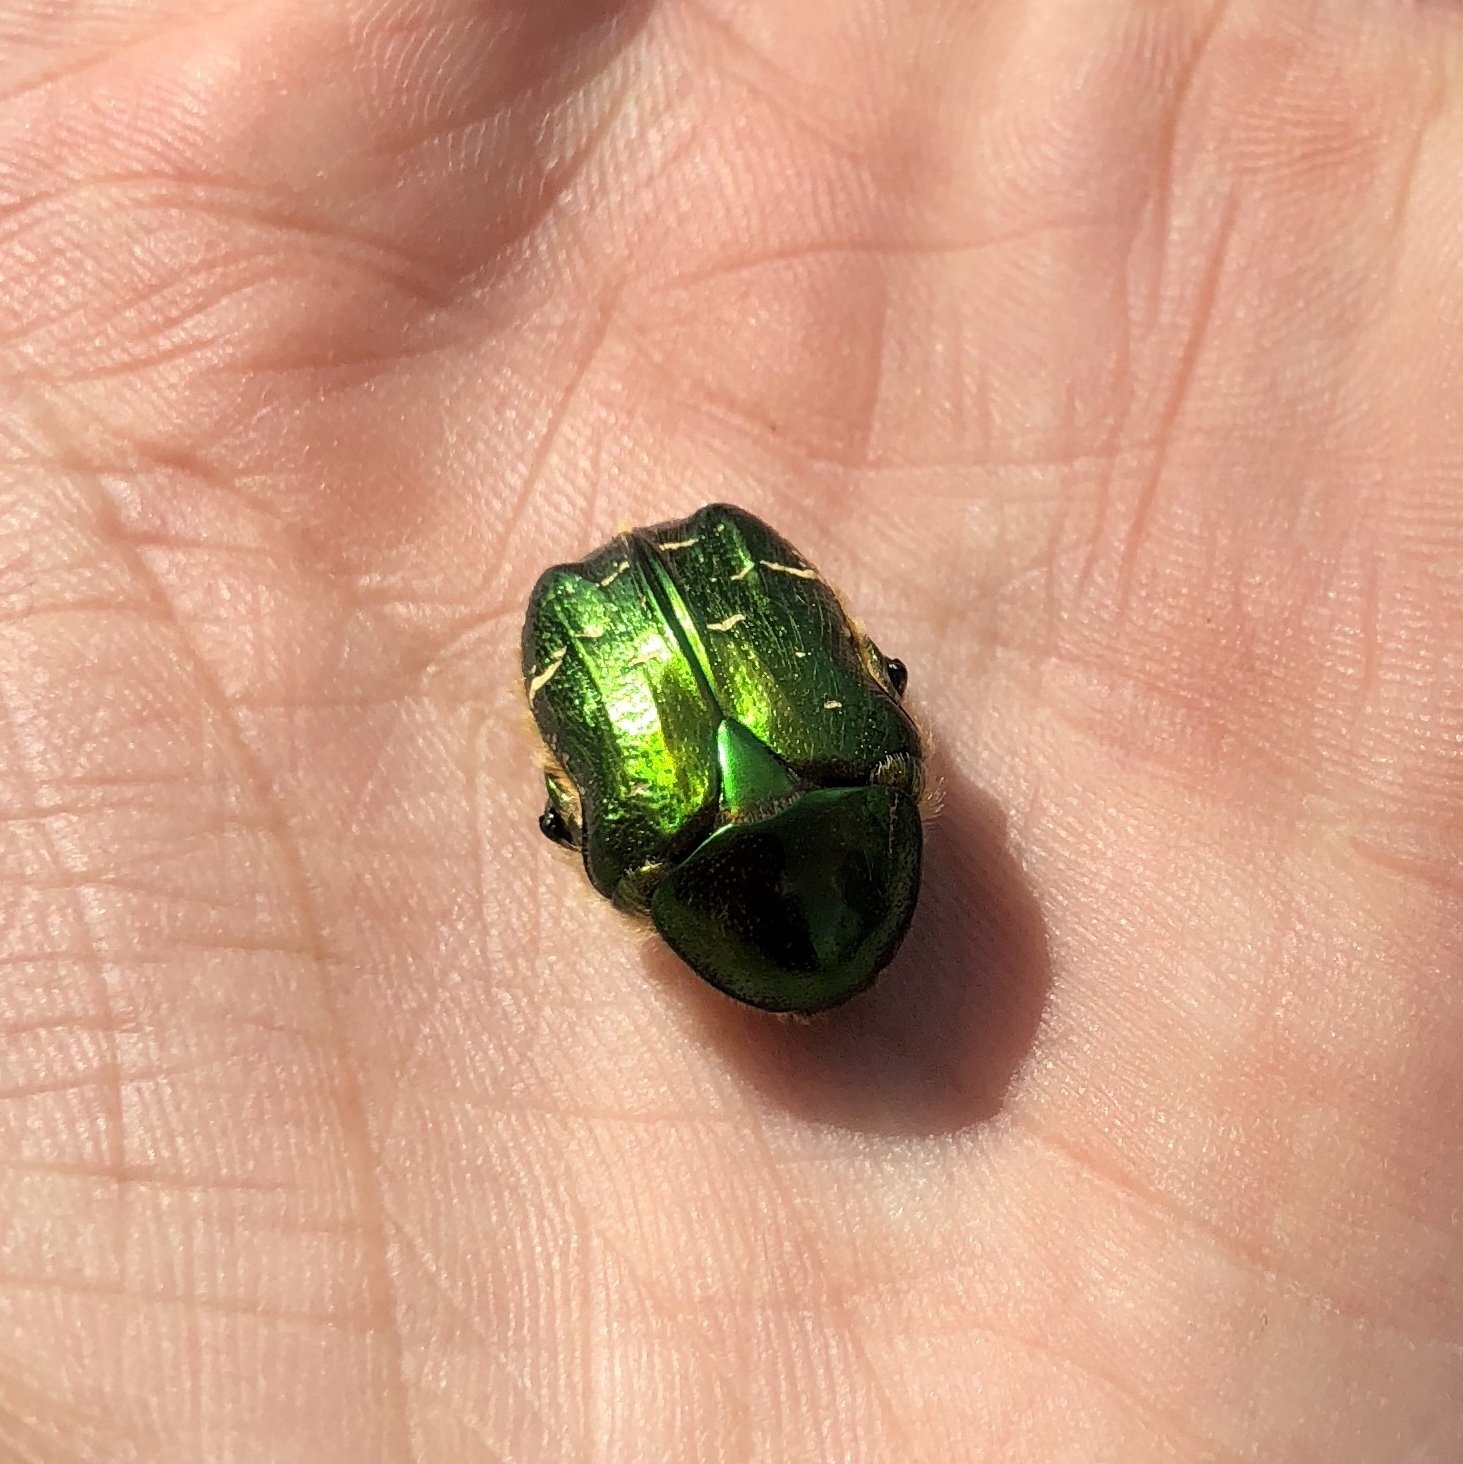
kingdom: Animalia
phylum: Arthropoda
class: Insecta
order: Coleoptera
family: Scarabaeidae
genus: Cetonia
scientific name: Cetonia aurata
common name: Rose chafer
